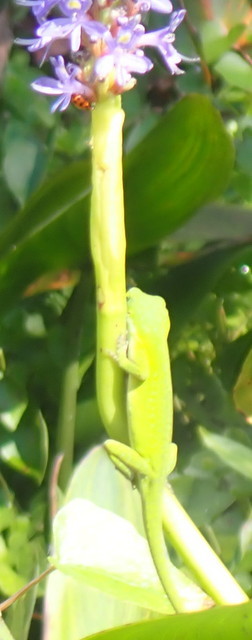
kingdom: Animalia
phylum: Chordata
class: Squamata
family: Dactyloidae
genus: Anolis
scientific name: Anolis carolinensis
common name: Green anole
